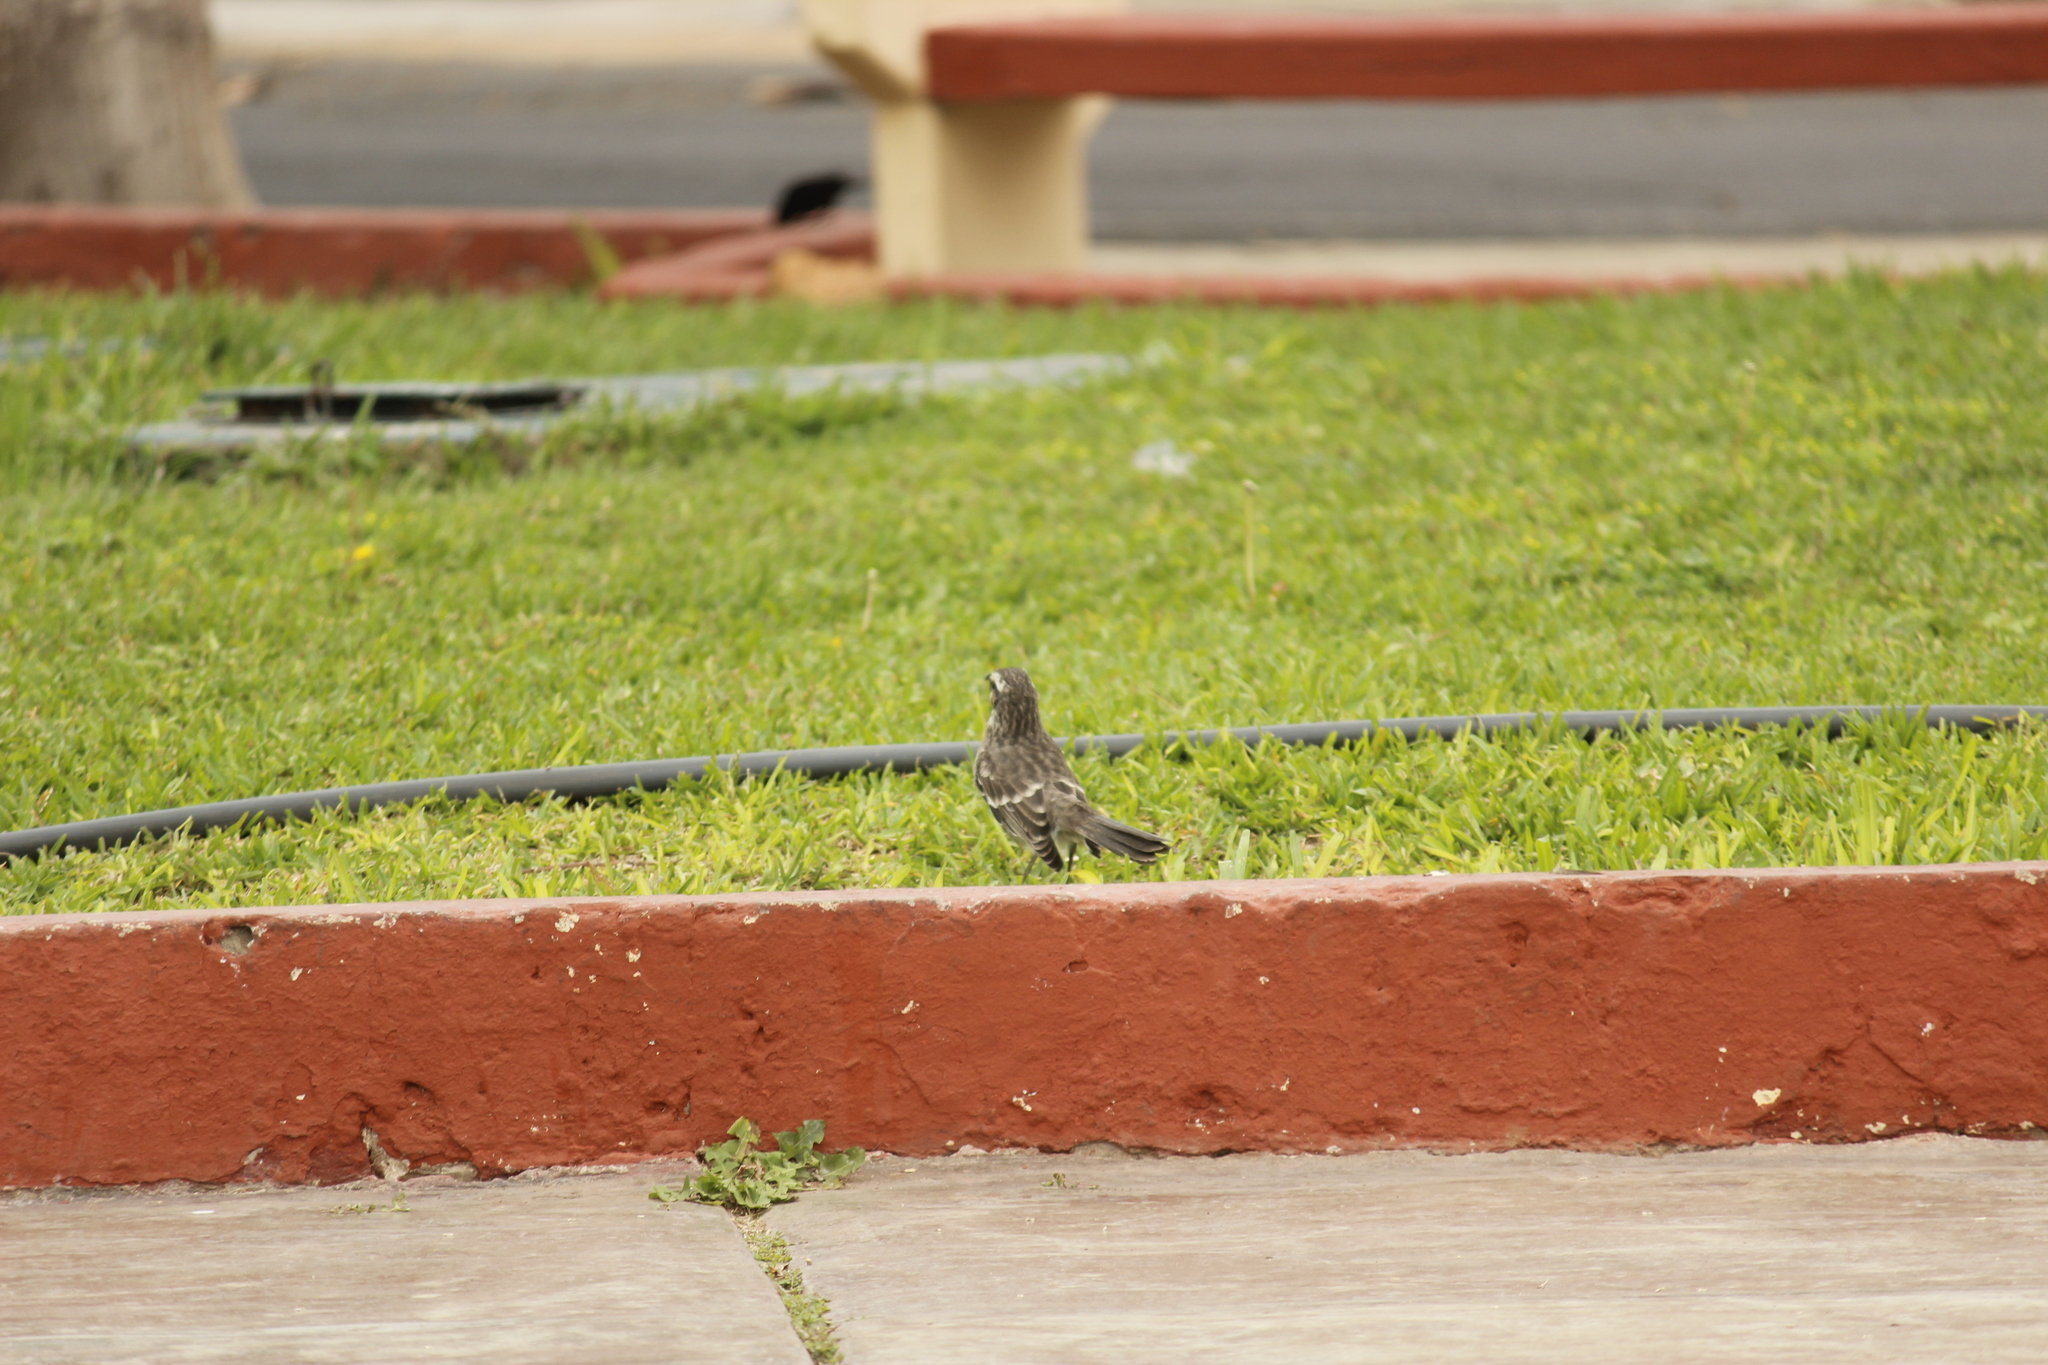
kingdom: Animalia
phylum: Chordata
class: Aves
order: Passeriformes
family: Mimidae
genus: Mimus
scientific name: Mimus longicaudatus
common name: Long-tailed mockingbird
